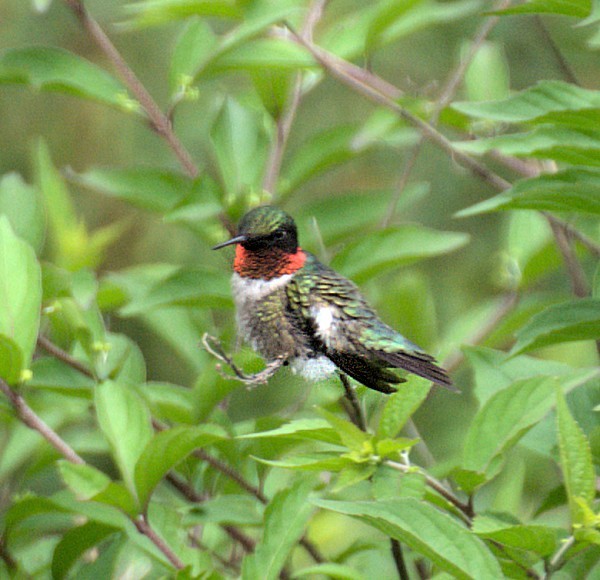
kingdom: Animalia
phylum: Chordata
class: Aves
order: Apodiformes
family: Trochilidae
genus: Archilochus
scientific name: Archilochus colubris
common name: Ruby-throated hummingbird
